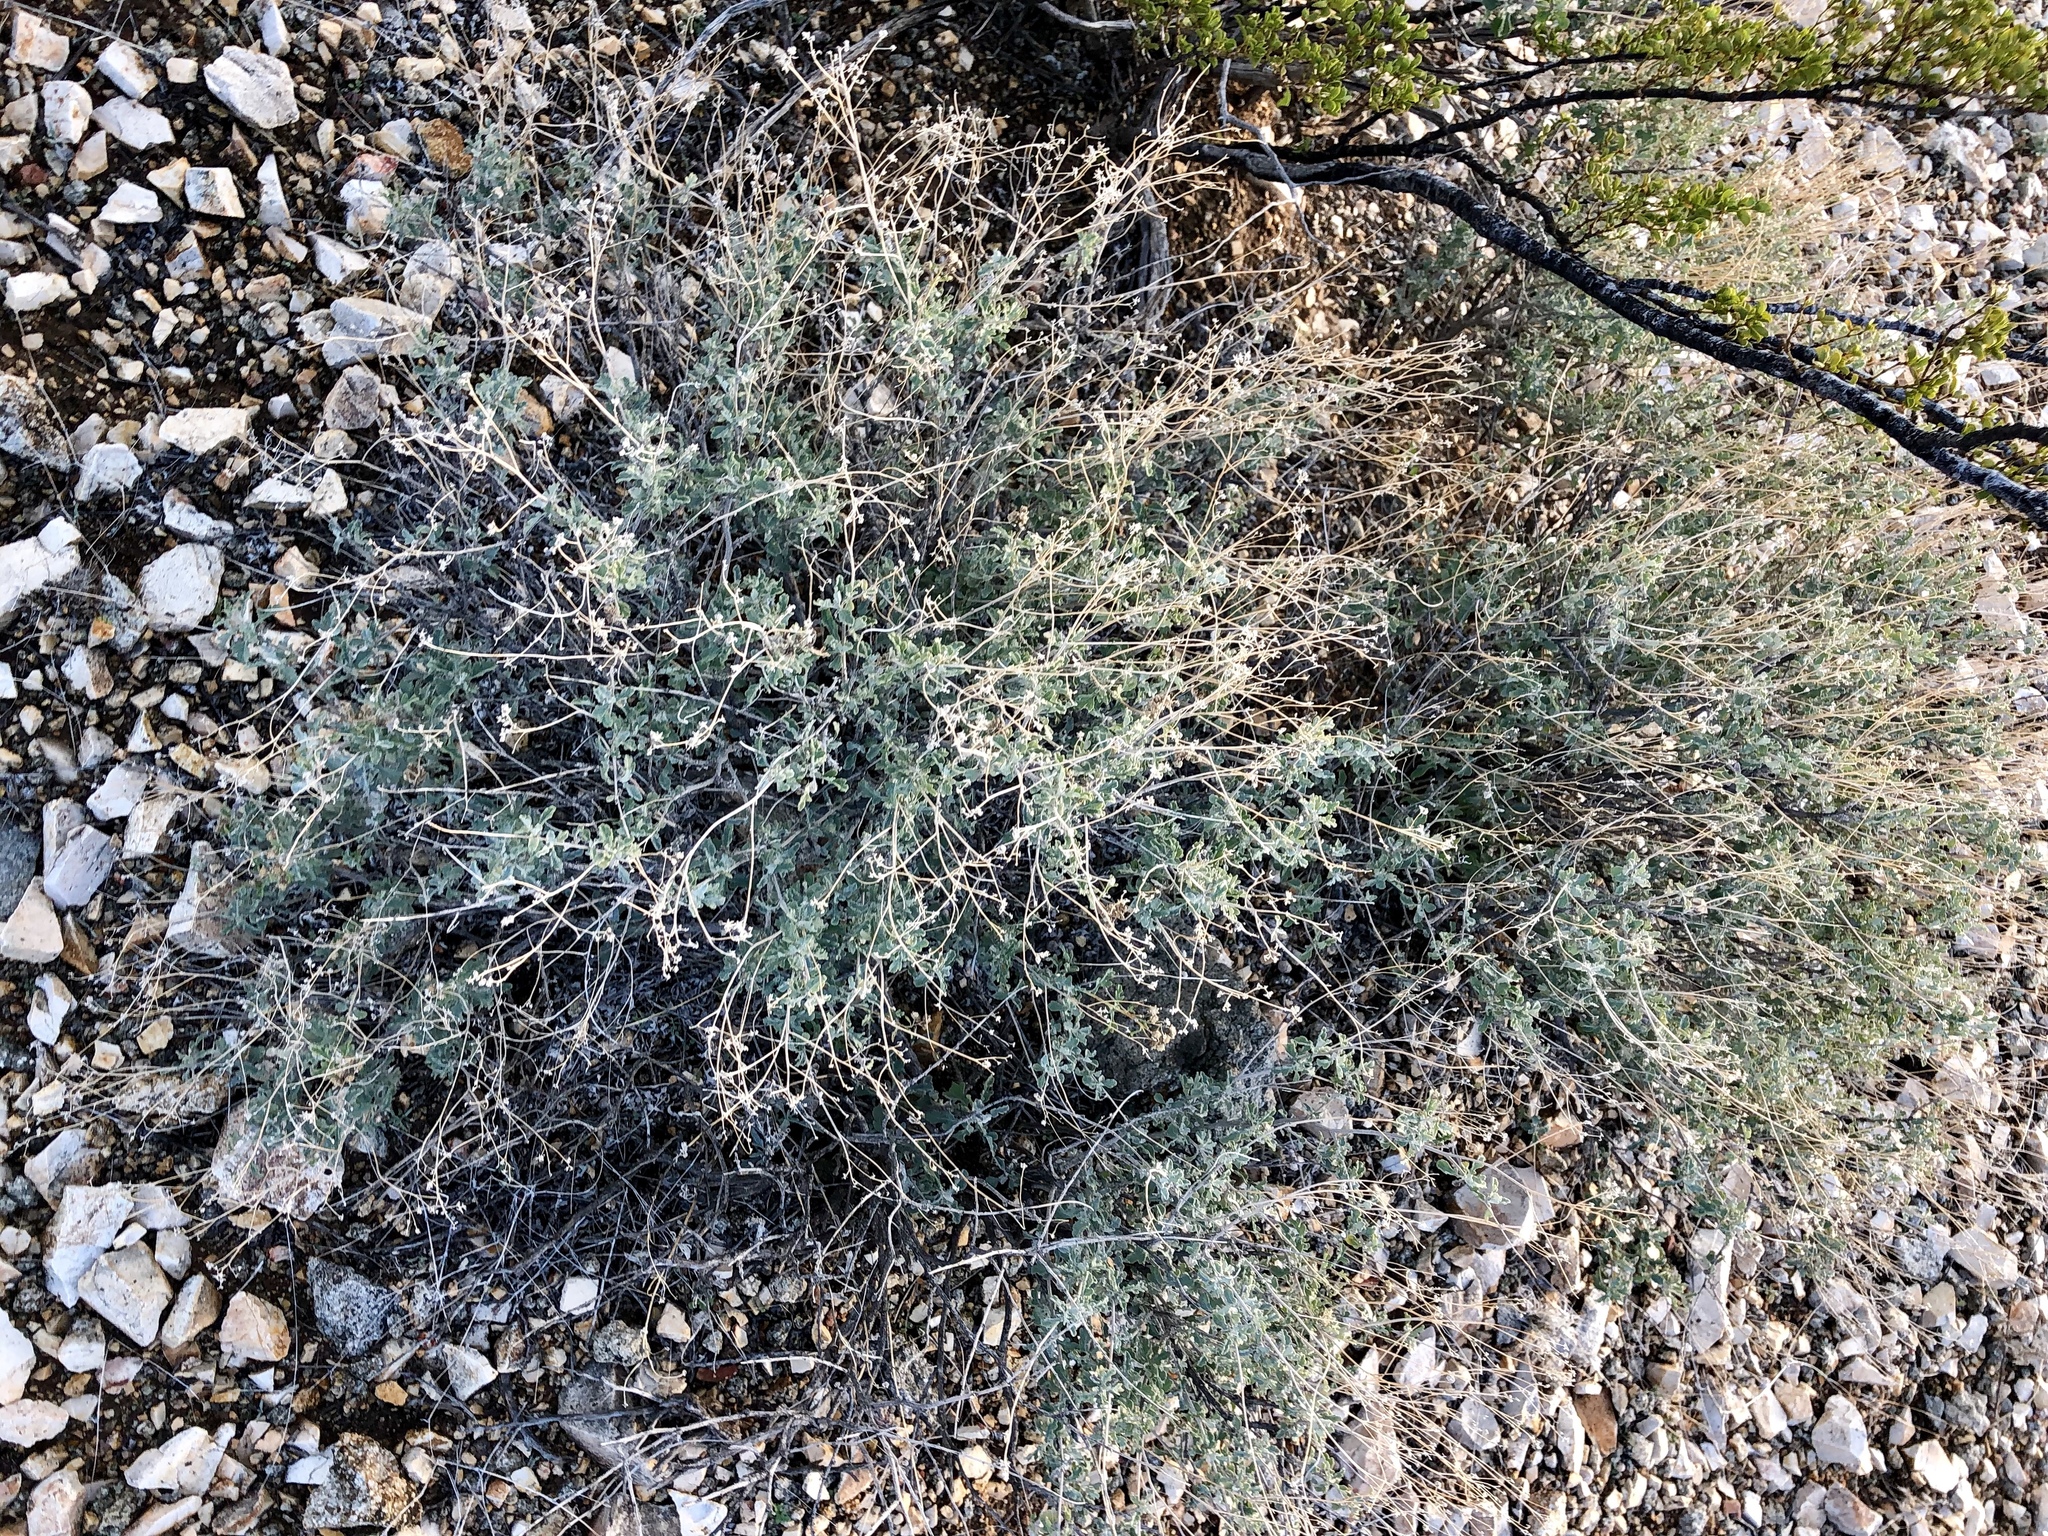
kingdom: Plantae
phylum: Tracheophyta
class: Magnoliopsida
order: Asterales
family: Asteraceae
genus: Parthenium
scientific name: Parthenium incanum
